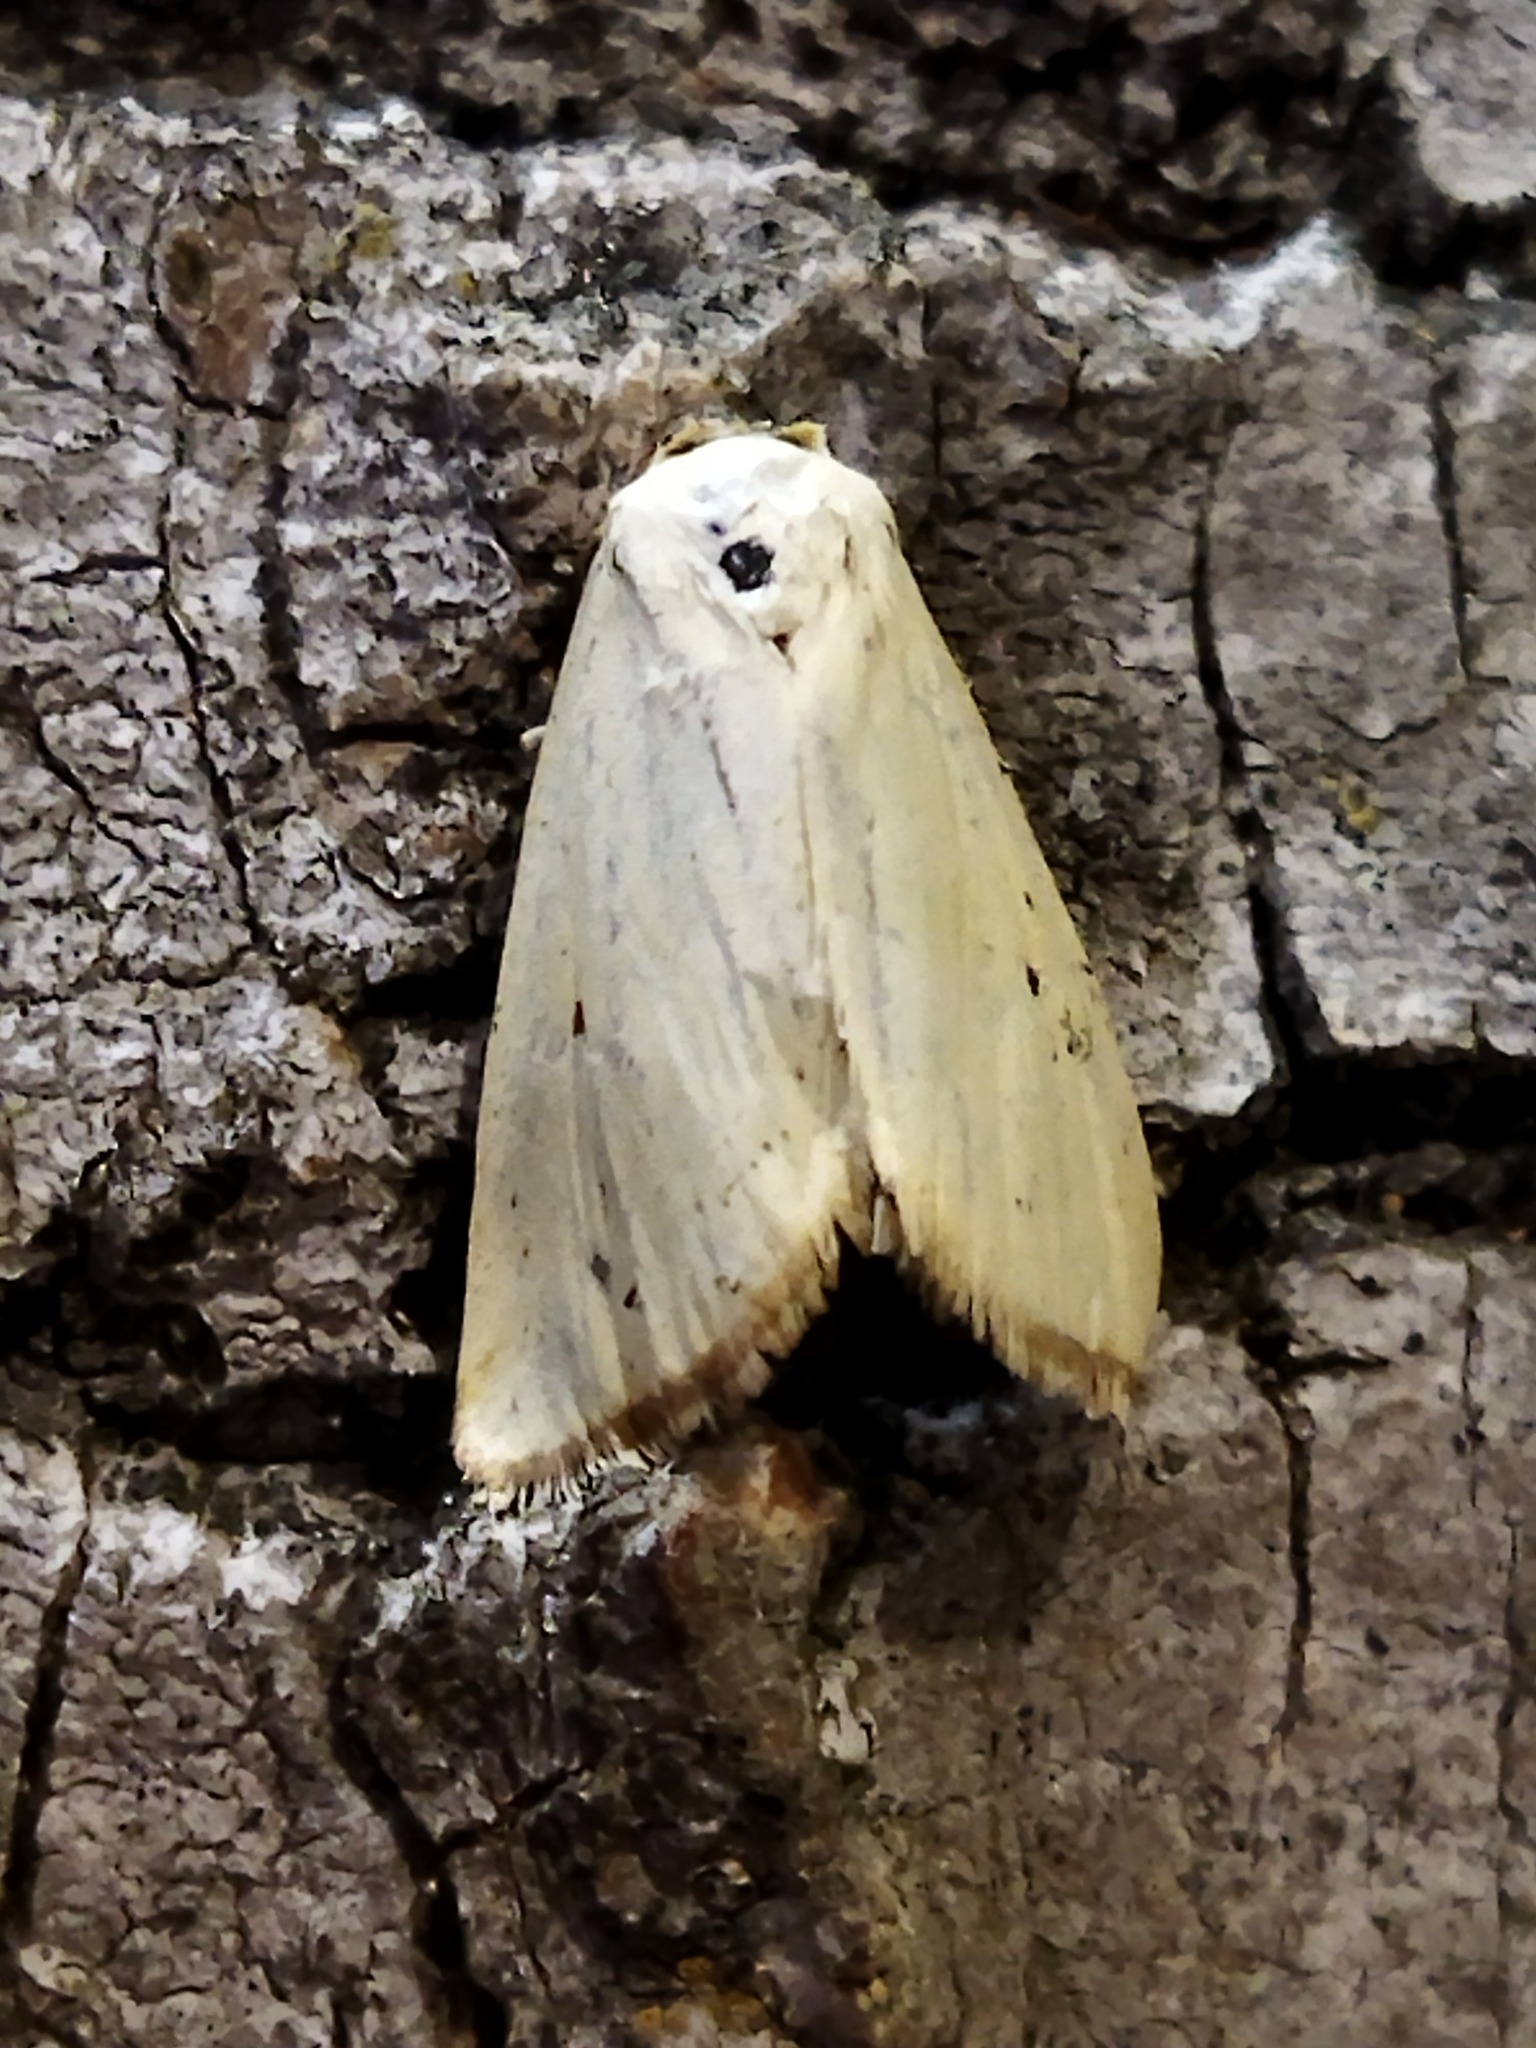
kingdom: Animalia
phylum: Arthropoda
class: Insecta
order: Lepidoptera
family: Noctuidae
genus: Aegle
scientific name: Aegle kaekeritziana
